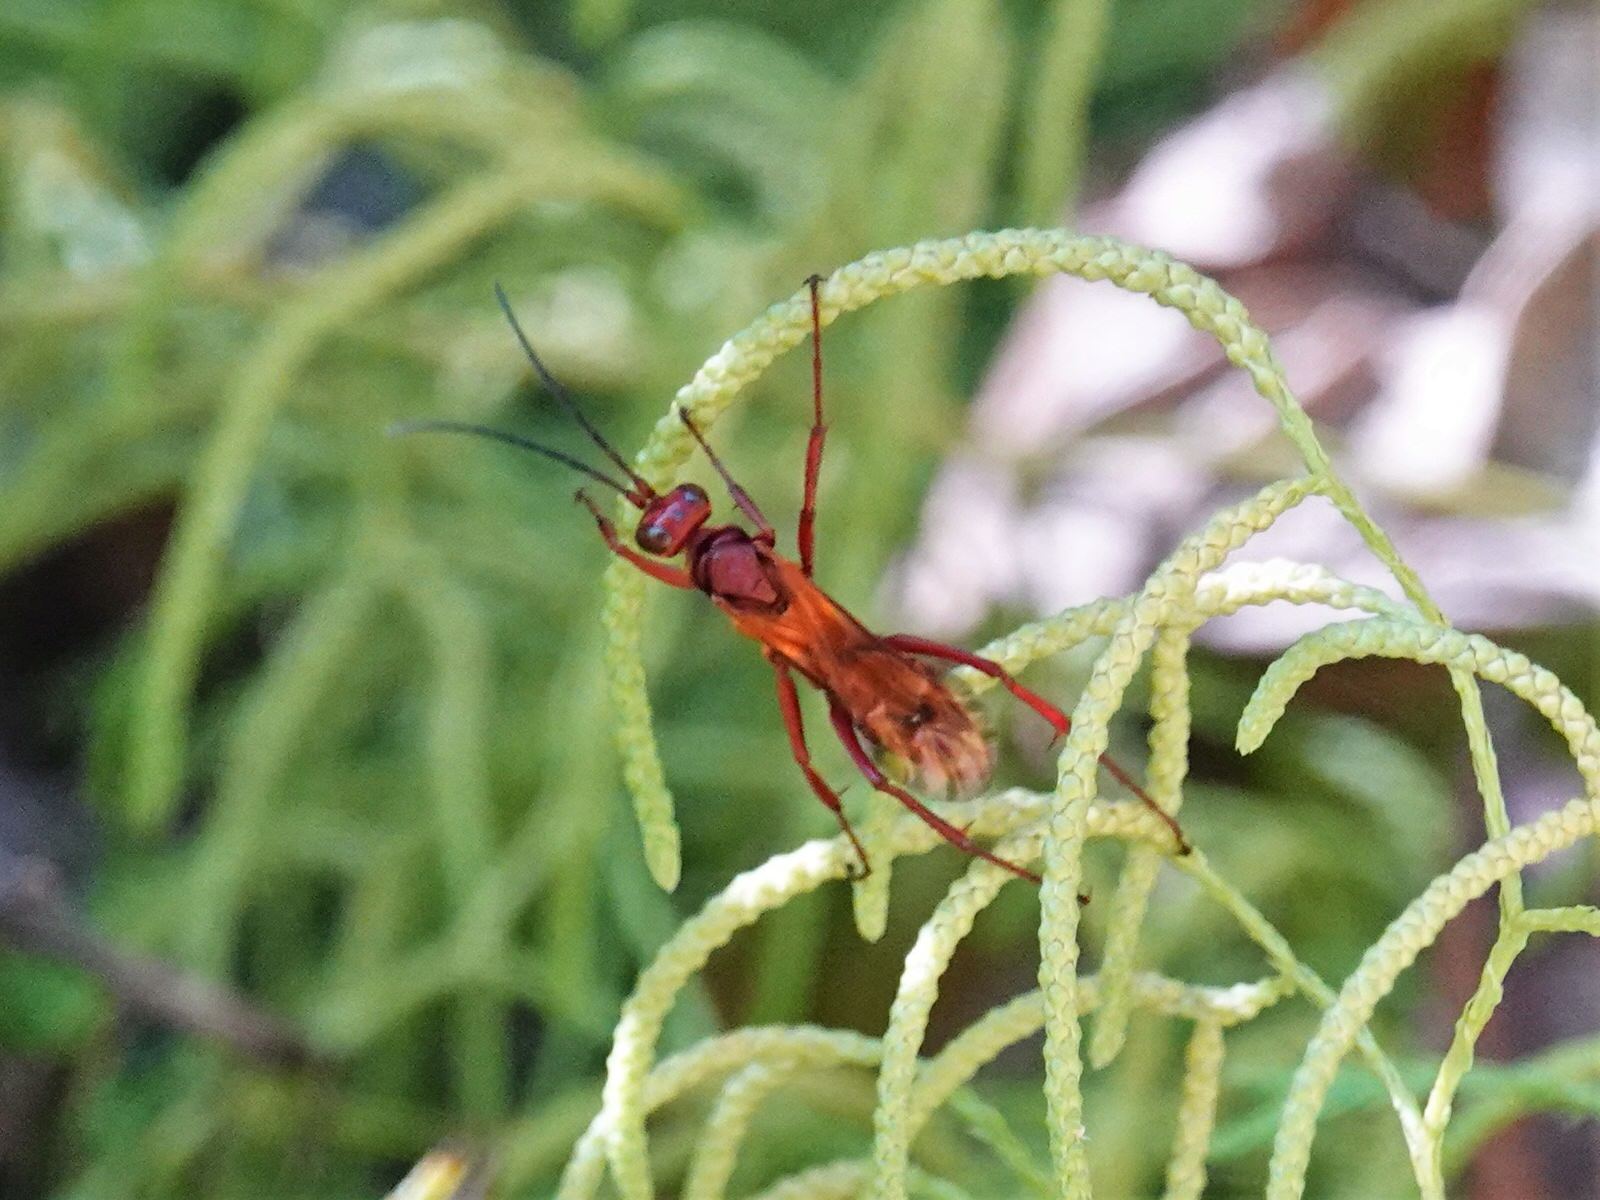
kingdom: Animalia
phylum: Arthropoda
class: Insecta
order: Hymenoptera
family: Pompilidae
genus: Sphictostethus
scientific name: Sphictostethus nitidus
